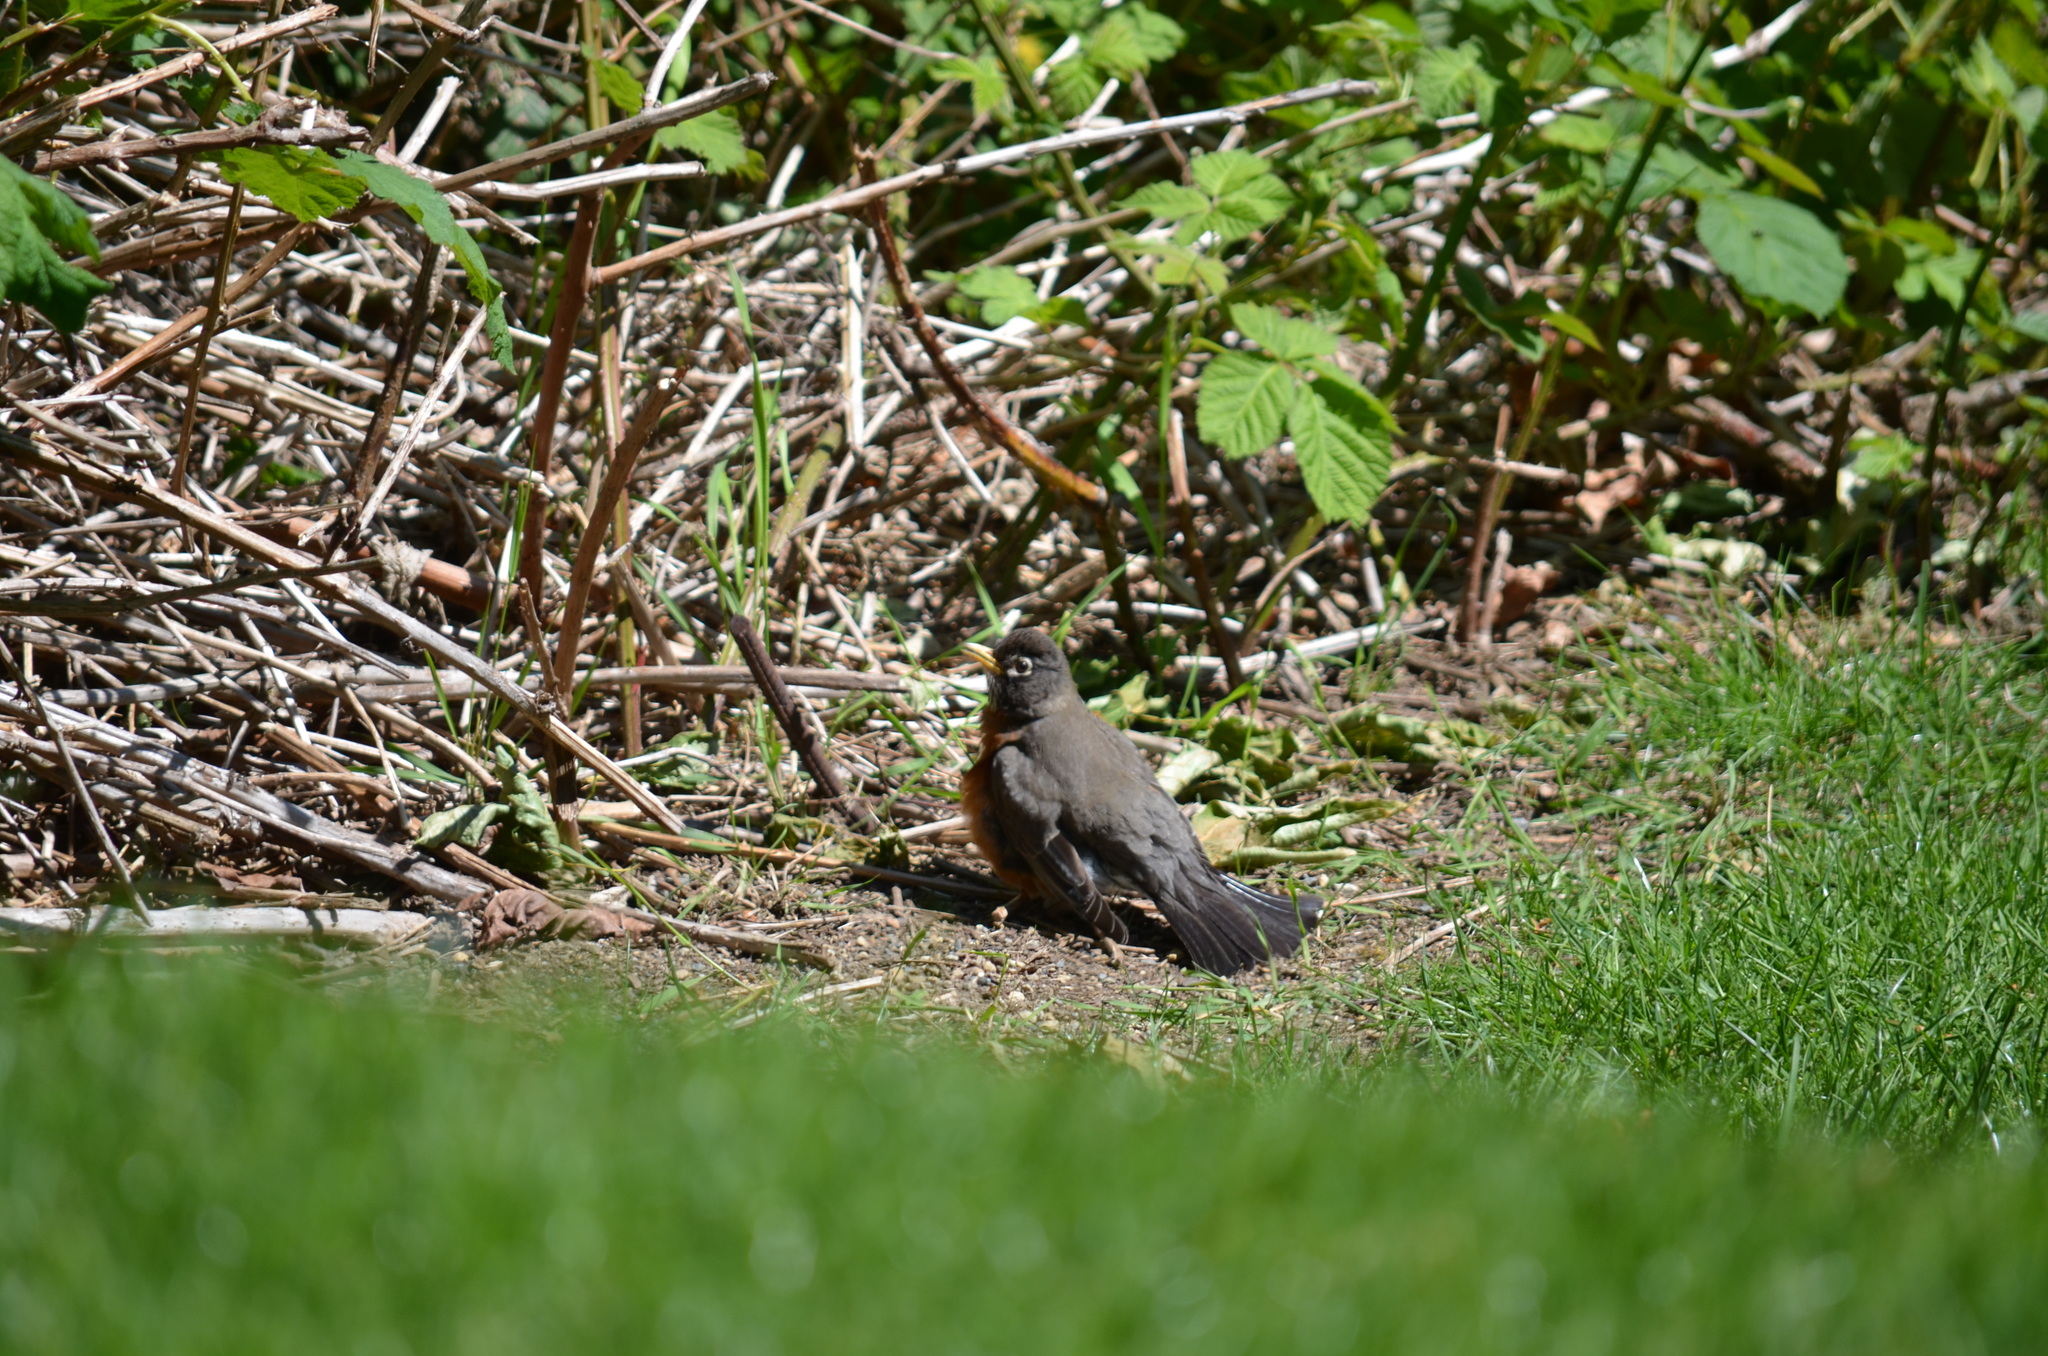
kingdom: Animalia
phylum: Chordata
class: Aves
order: Passeriformes
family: Turdidae
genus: Turdus
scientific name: Turdus migratorius
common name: American robin
